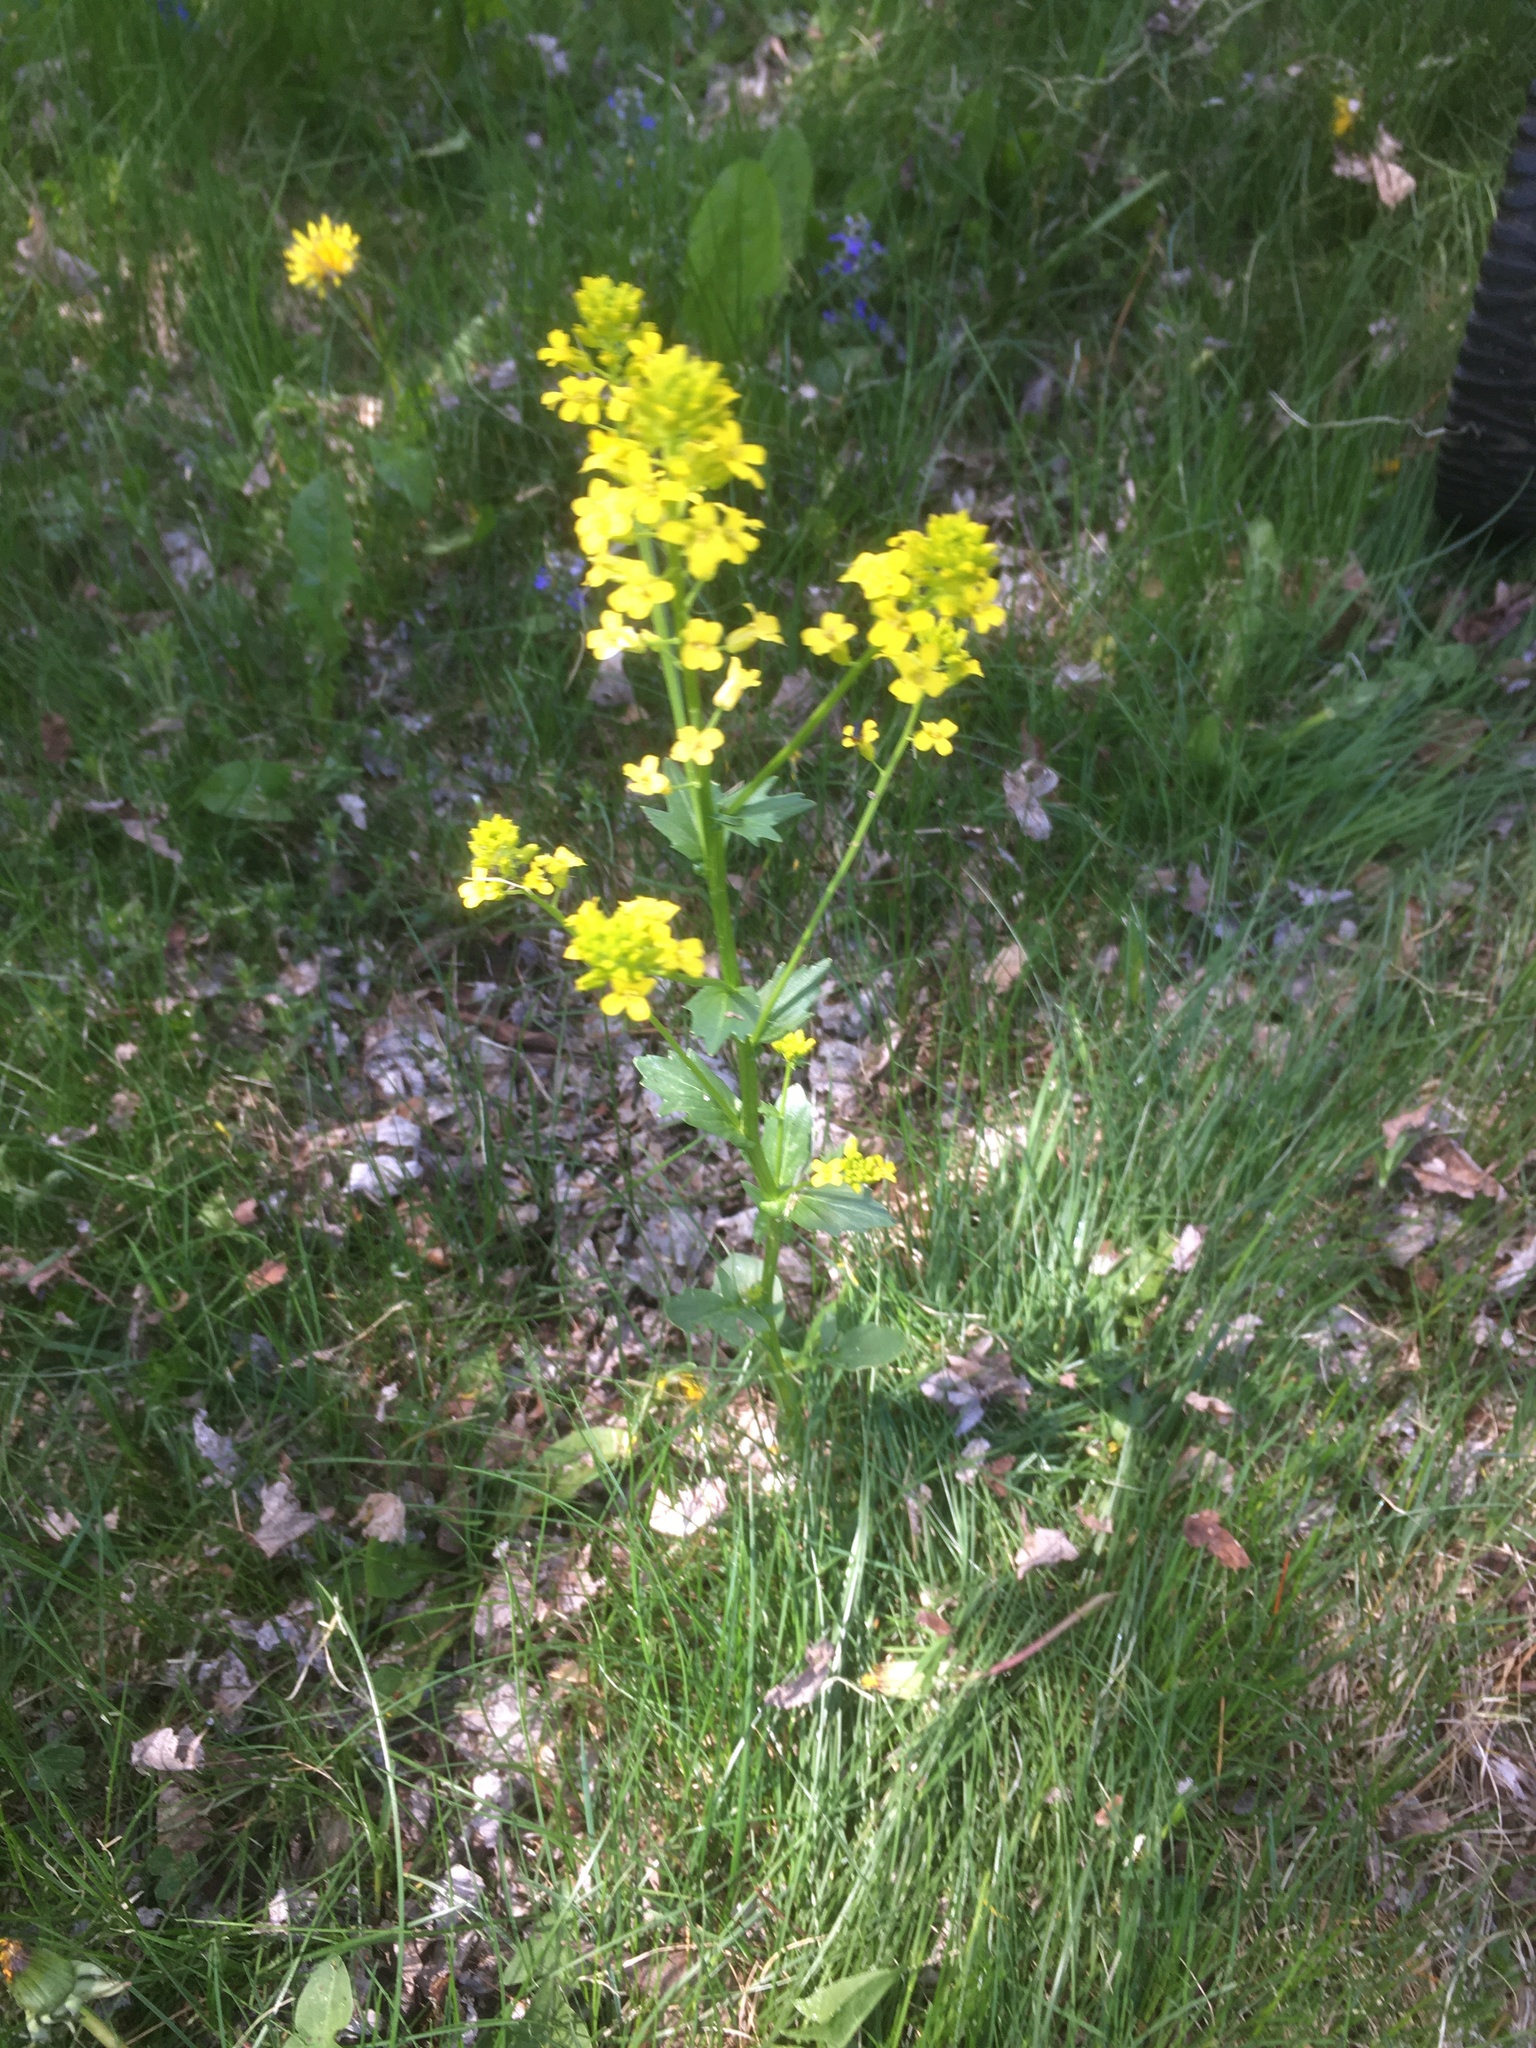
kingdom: Plantae
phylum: Tracheophyta
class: Magnoliopsida
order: Brassicales
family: Brassicaceae
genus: Barbarea
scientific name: Barbarea vulgaris
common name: Cressy-greens
